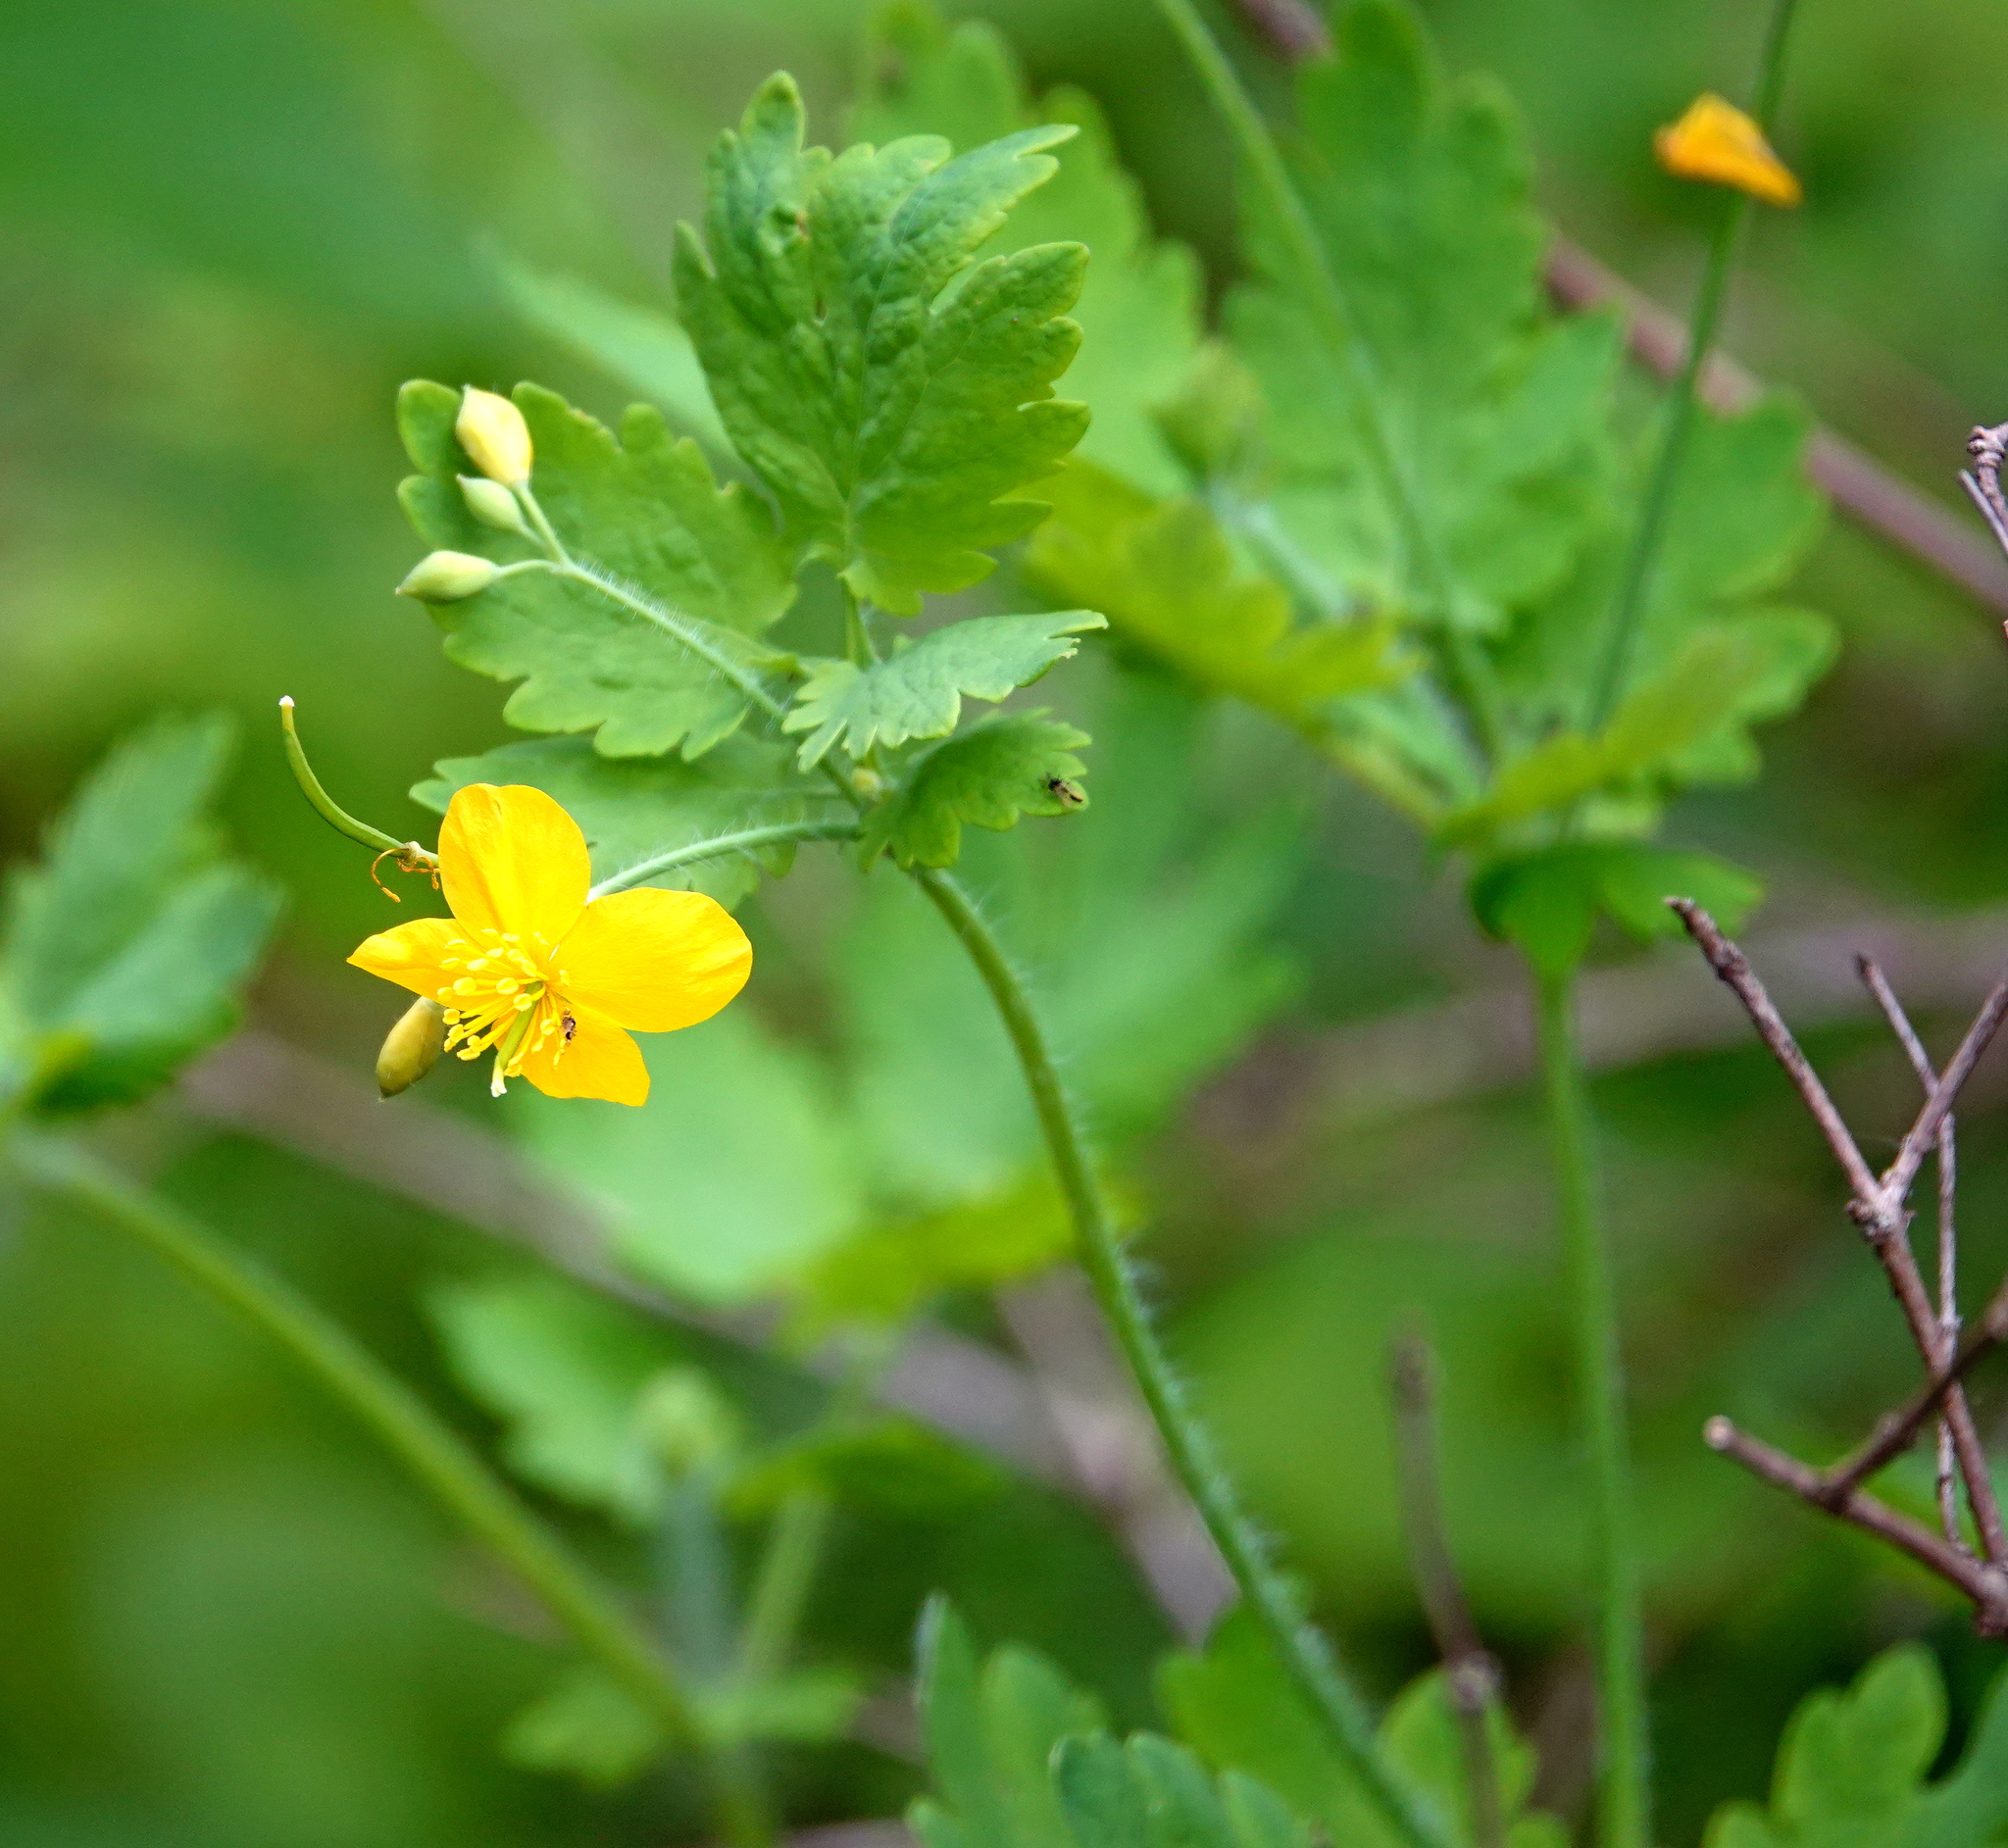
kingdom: Plantae
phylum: Tracheophyta
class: Magnoliopsida
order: Ranunculales
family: Papaveraceae
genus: Chelidonium
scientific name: Chelidonium majus
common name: Greater celandine
